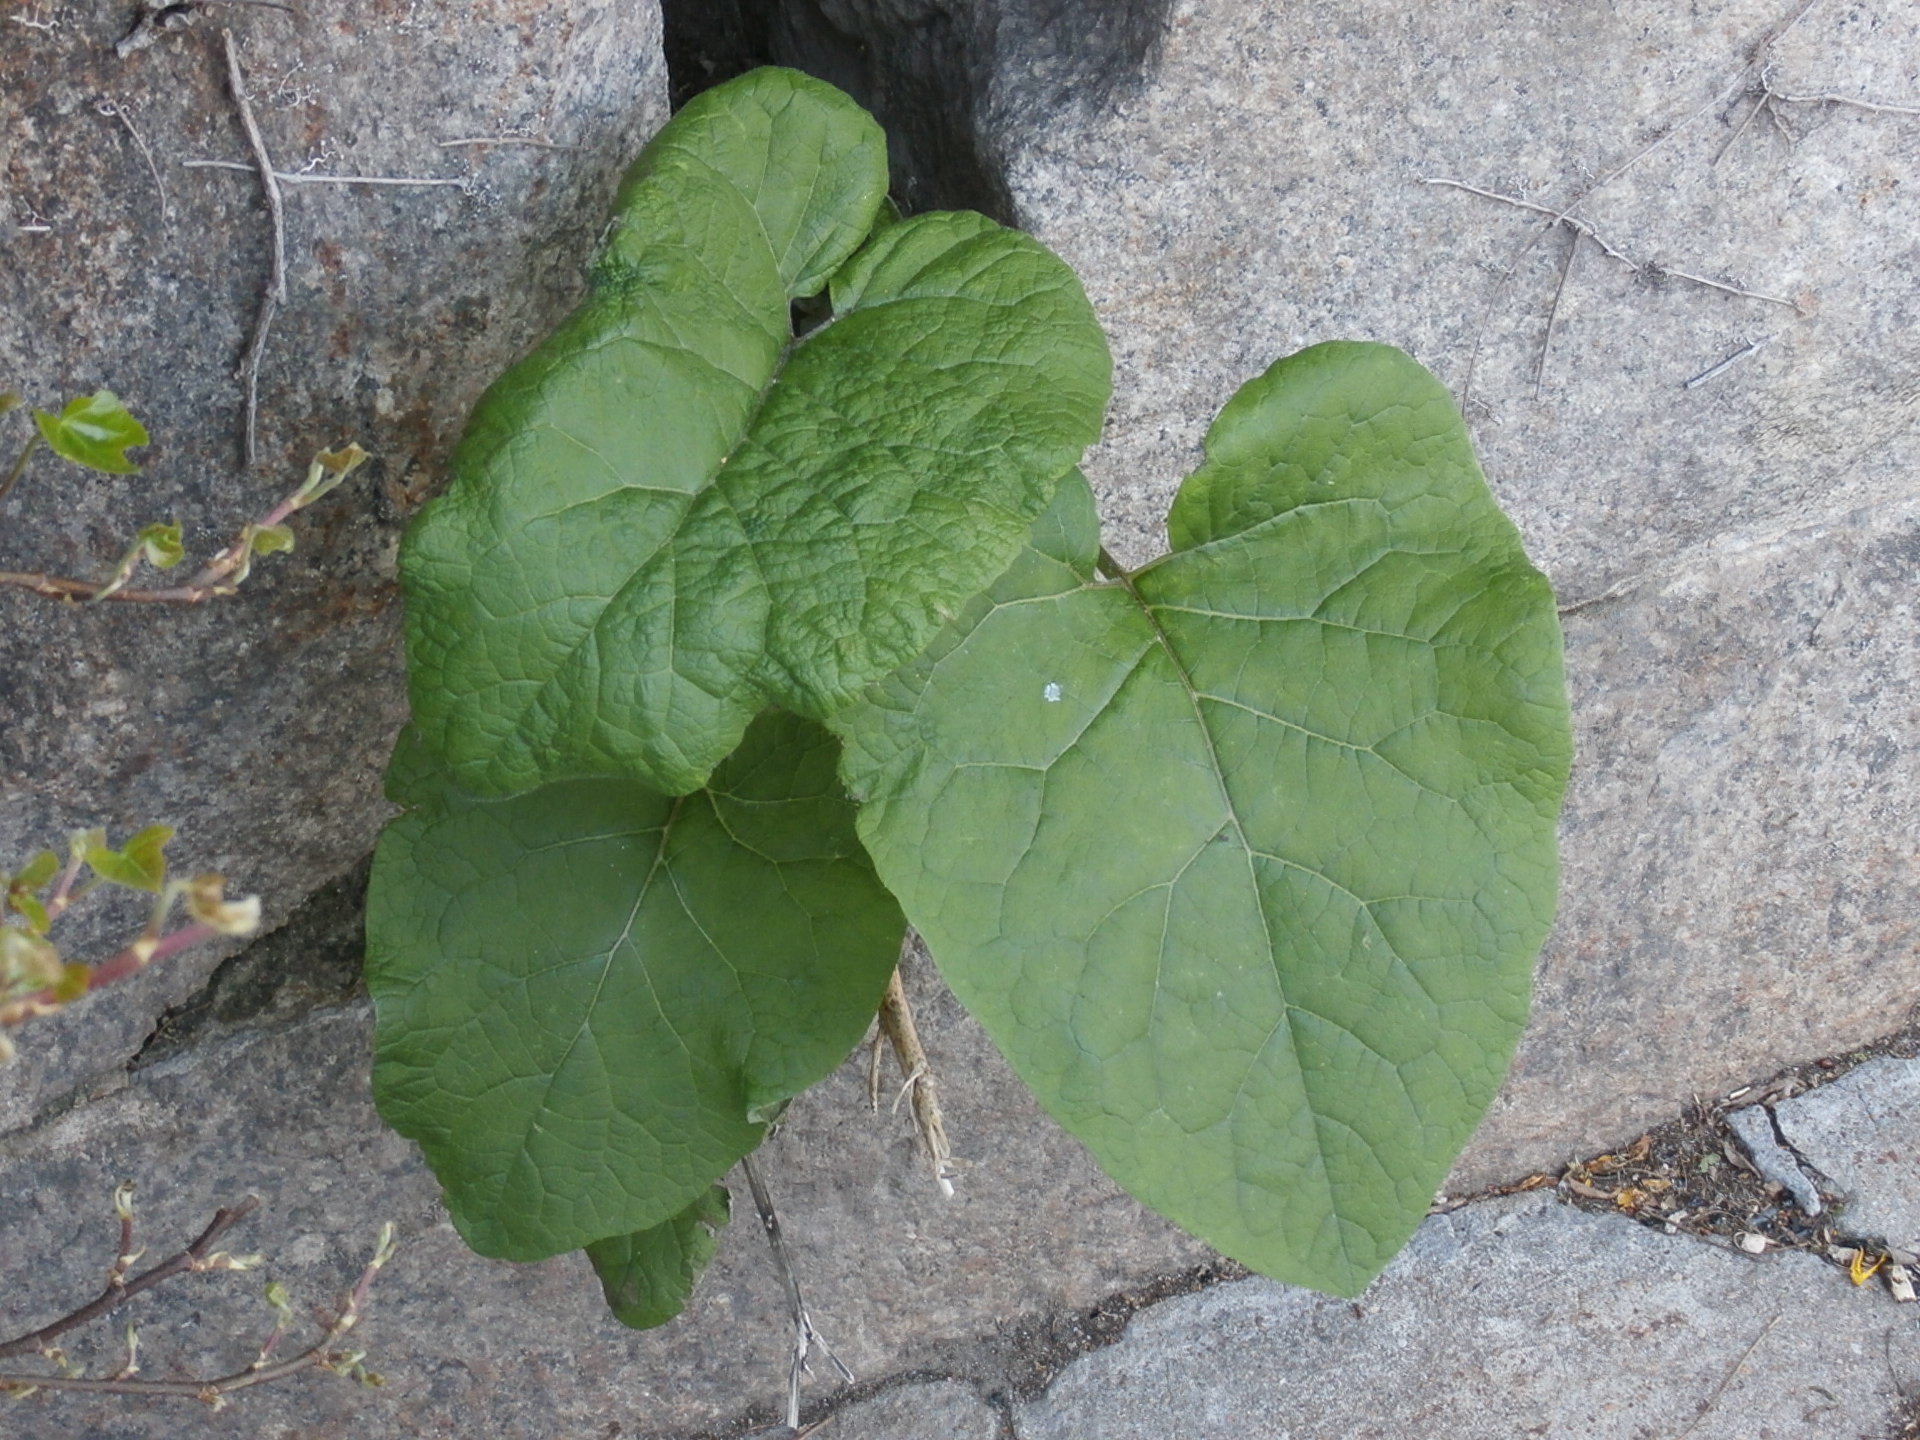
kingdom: Plantae
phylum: Tracheophyta
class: Magnoliopsida
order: Asterales
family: Asteraceae
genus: Arctium
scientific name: Arctium
